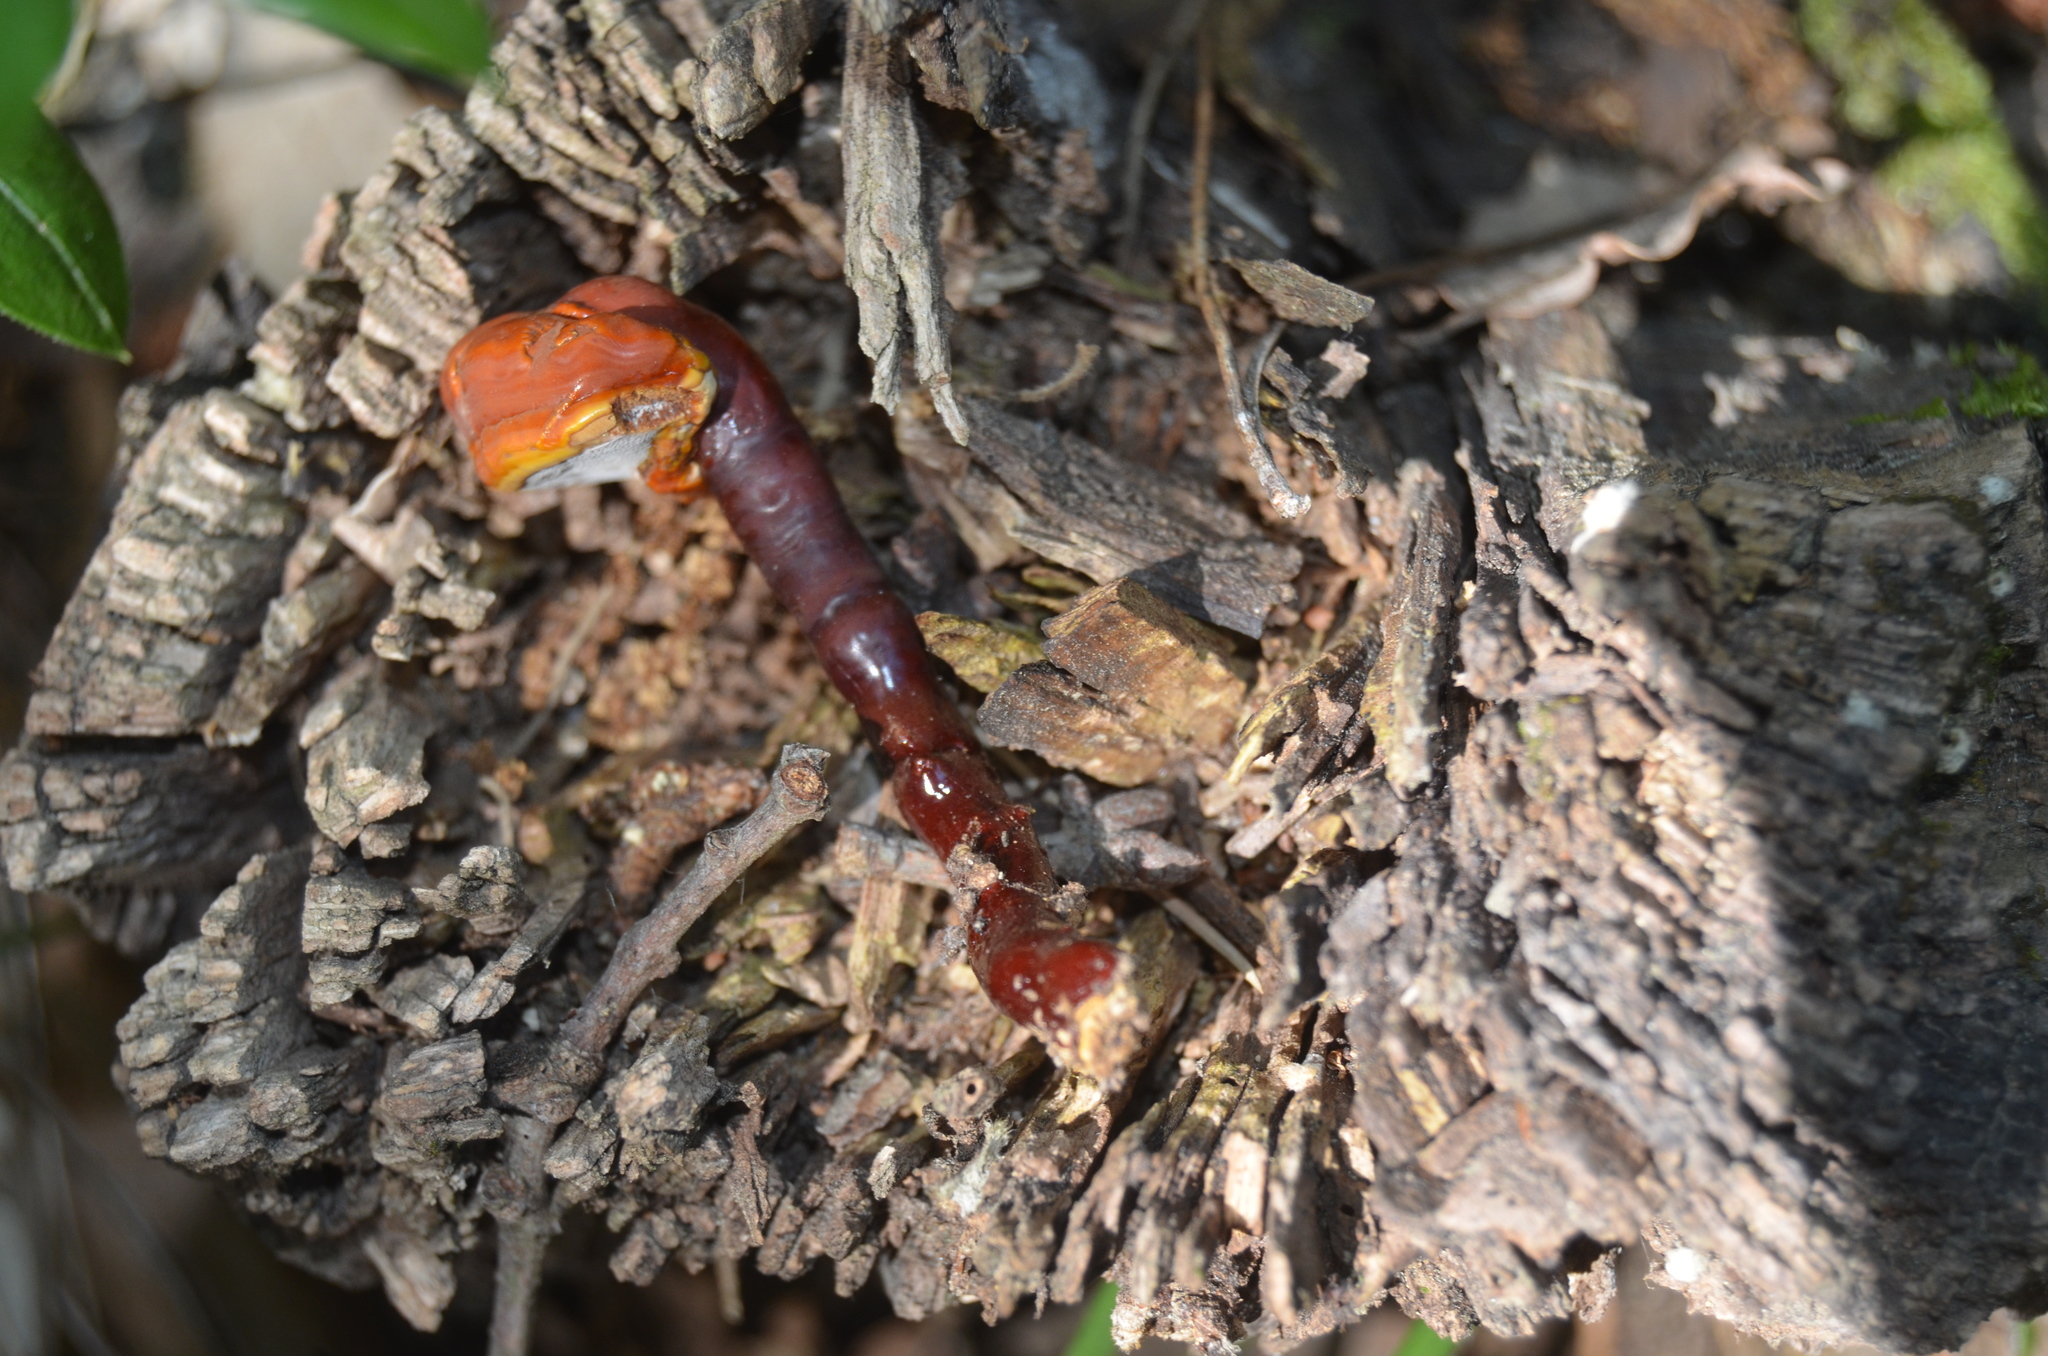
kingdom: Fungi
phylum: Basidiomycota
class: Agaricomycetes
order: Polyporales
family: Polyporaceae
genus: Ganoderma
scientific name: Ganoderma lucidum
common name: Lacquered bracket
